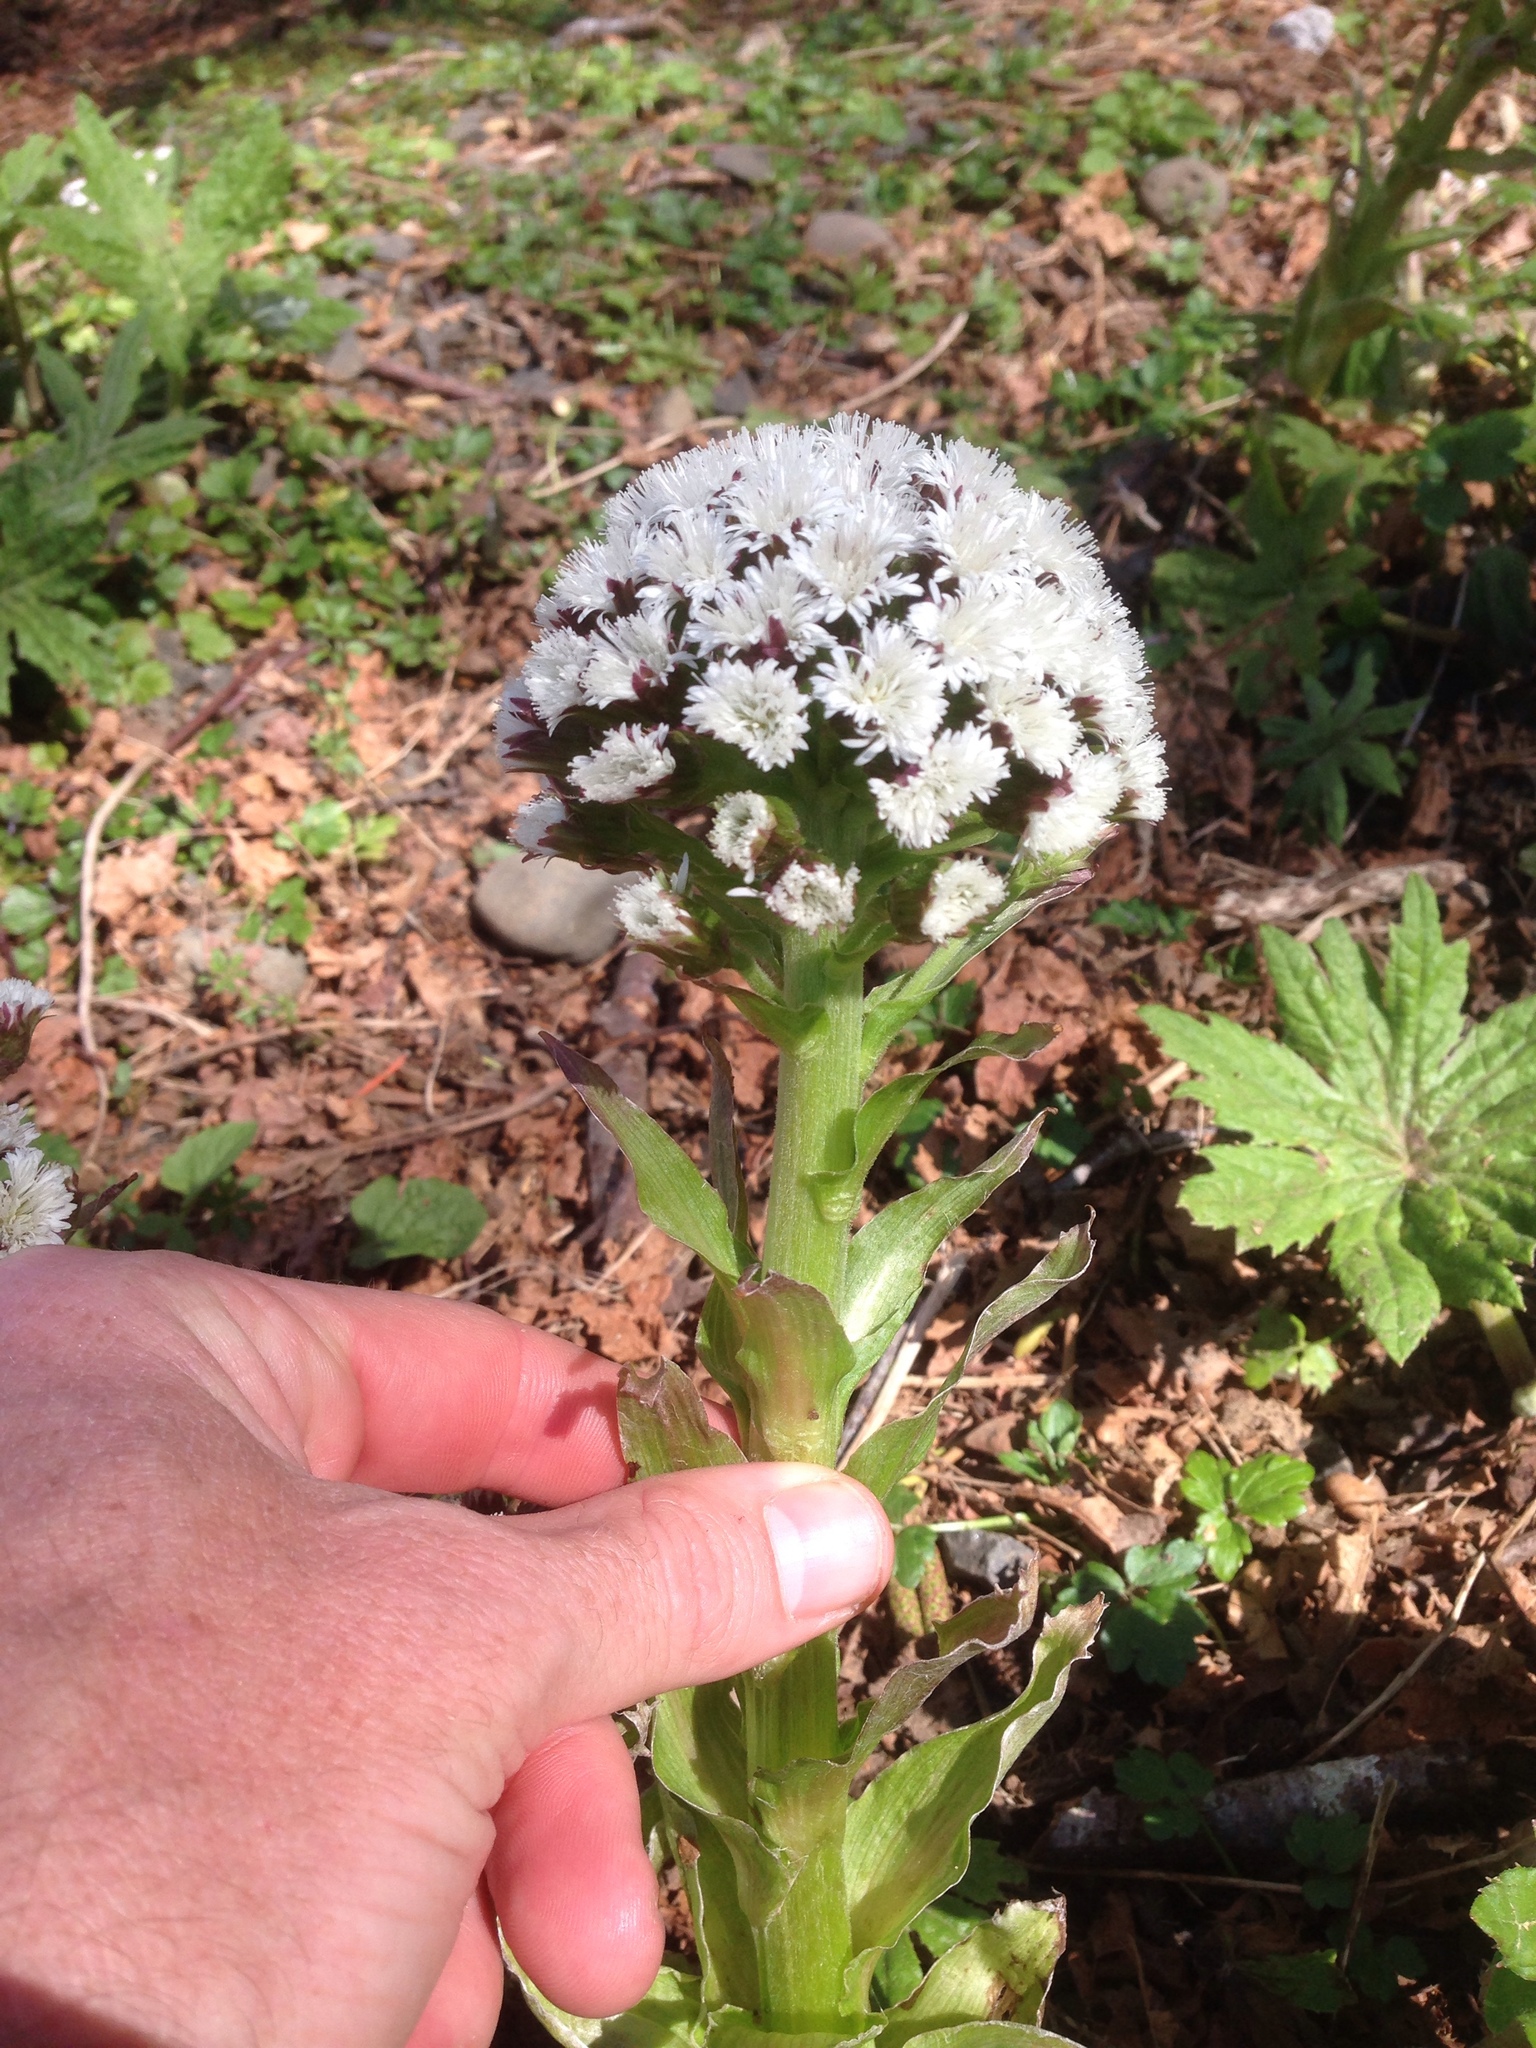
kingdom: Plantae
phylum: Tracheophyta
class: Magnoliopsida
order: Asterales
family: Asteraceae
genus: Petasites
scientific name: Petasites frigidus
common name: Arctic butterbur
